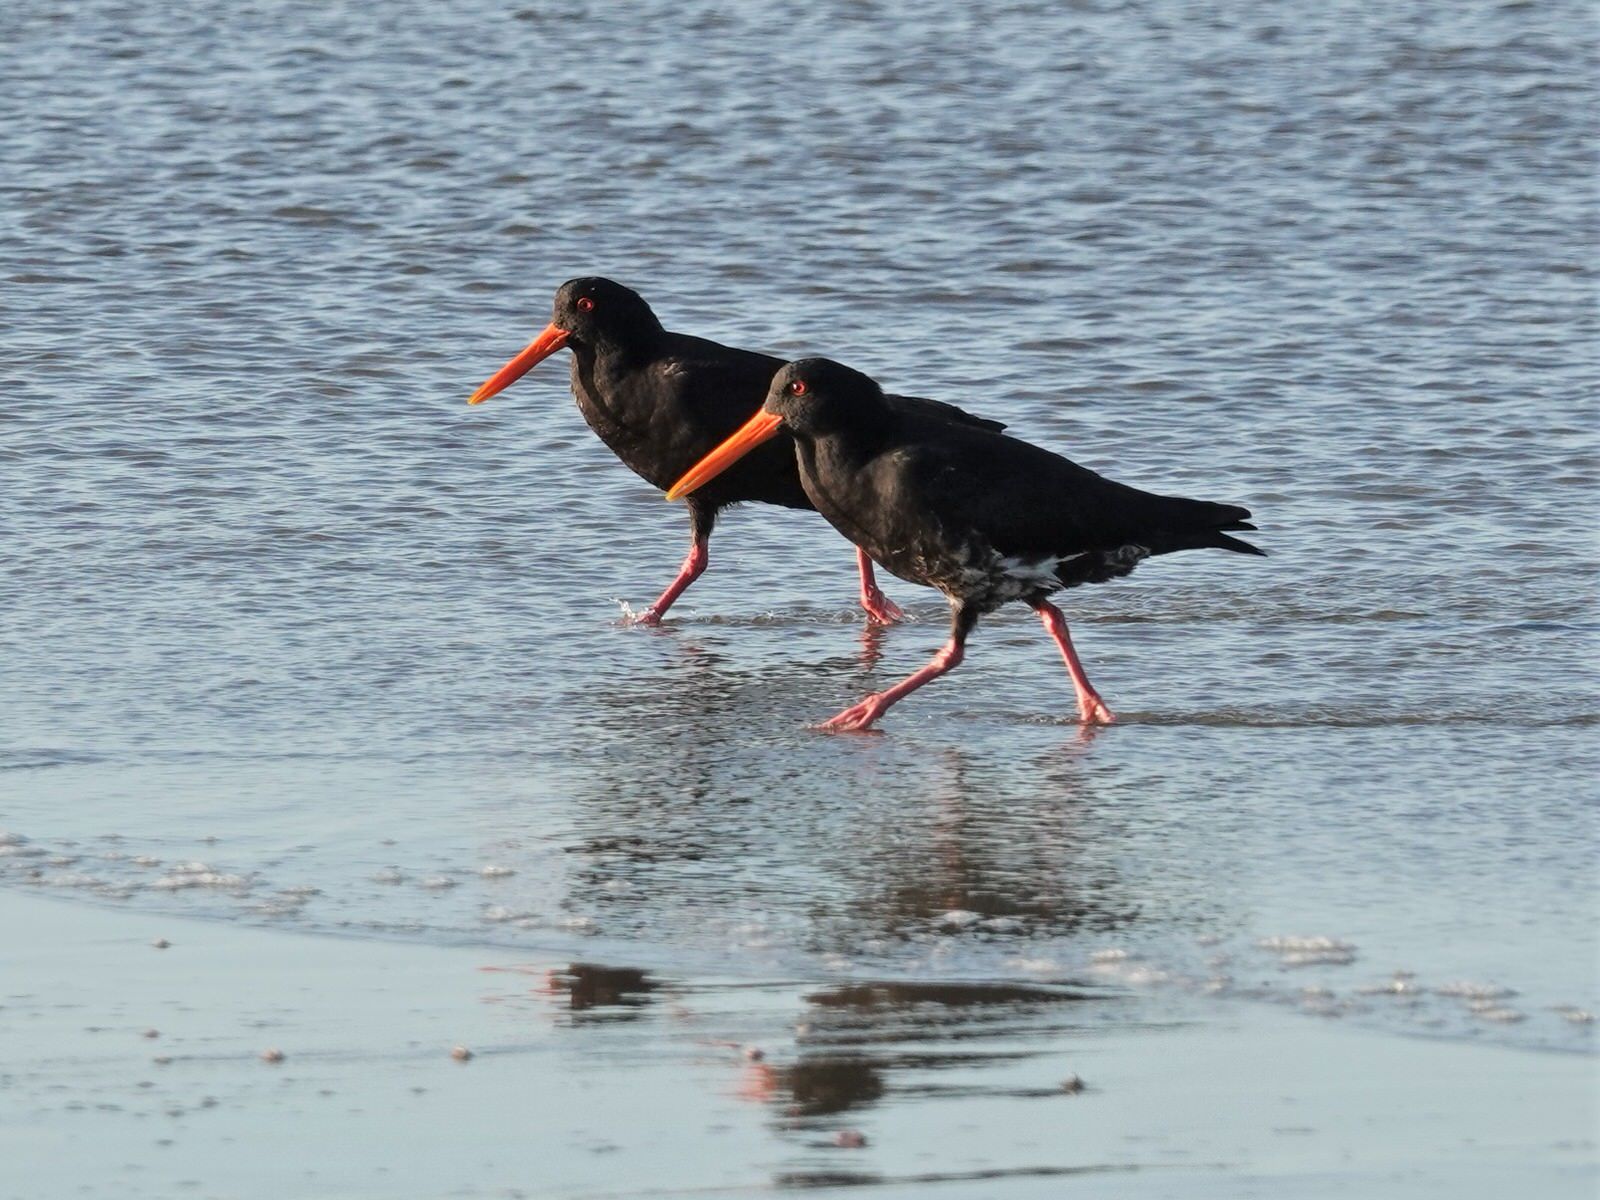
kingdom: Animalia
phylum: Chordata
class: Aves
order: Charadriiformes
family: Haematopodidae
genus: Haematopus
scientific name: Haematopus unicolor
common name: Variable oystercatcher
